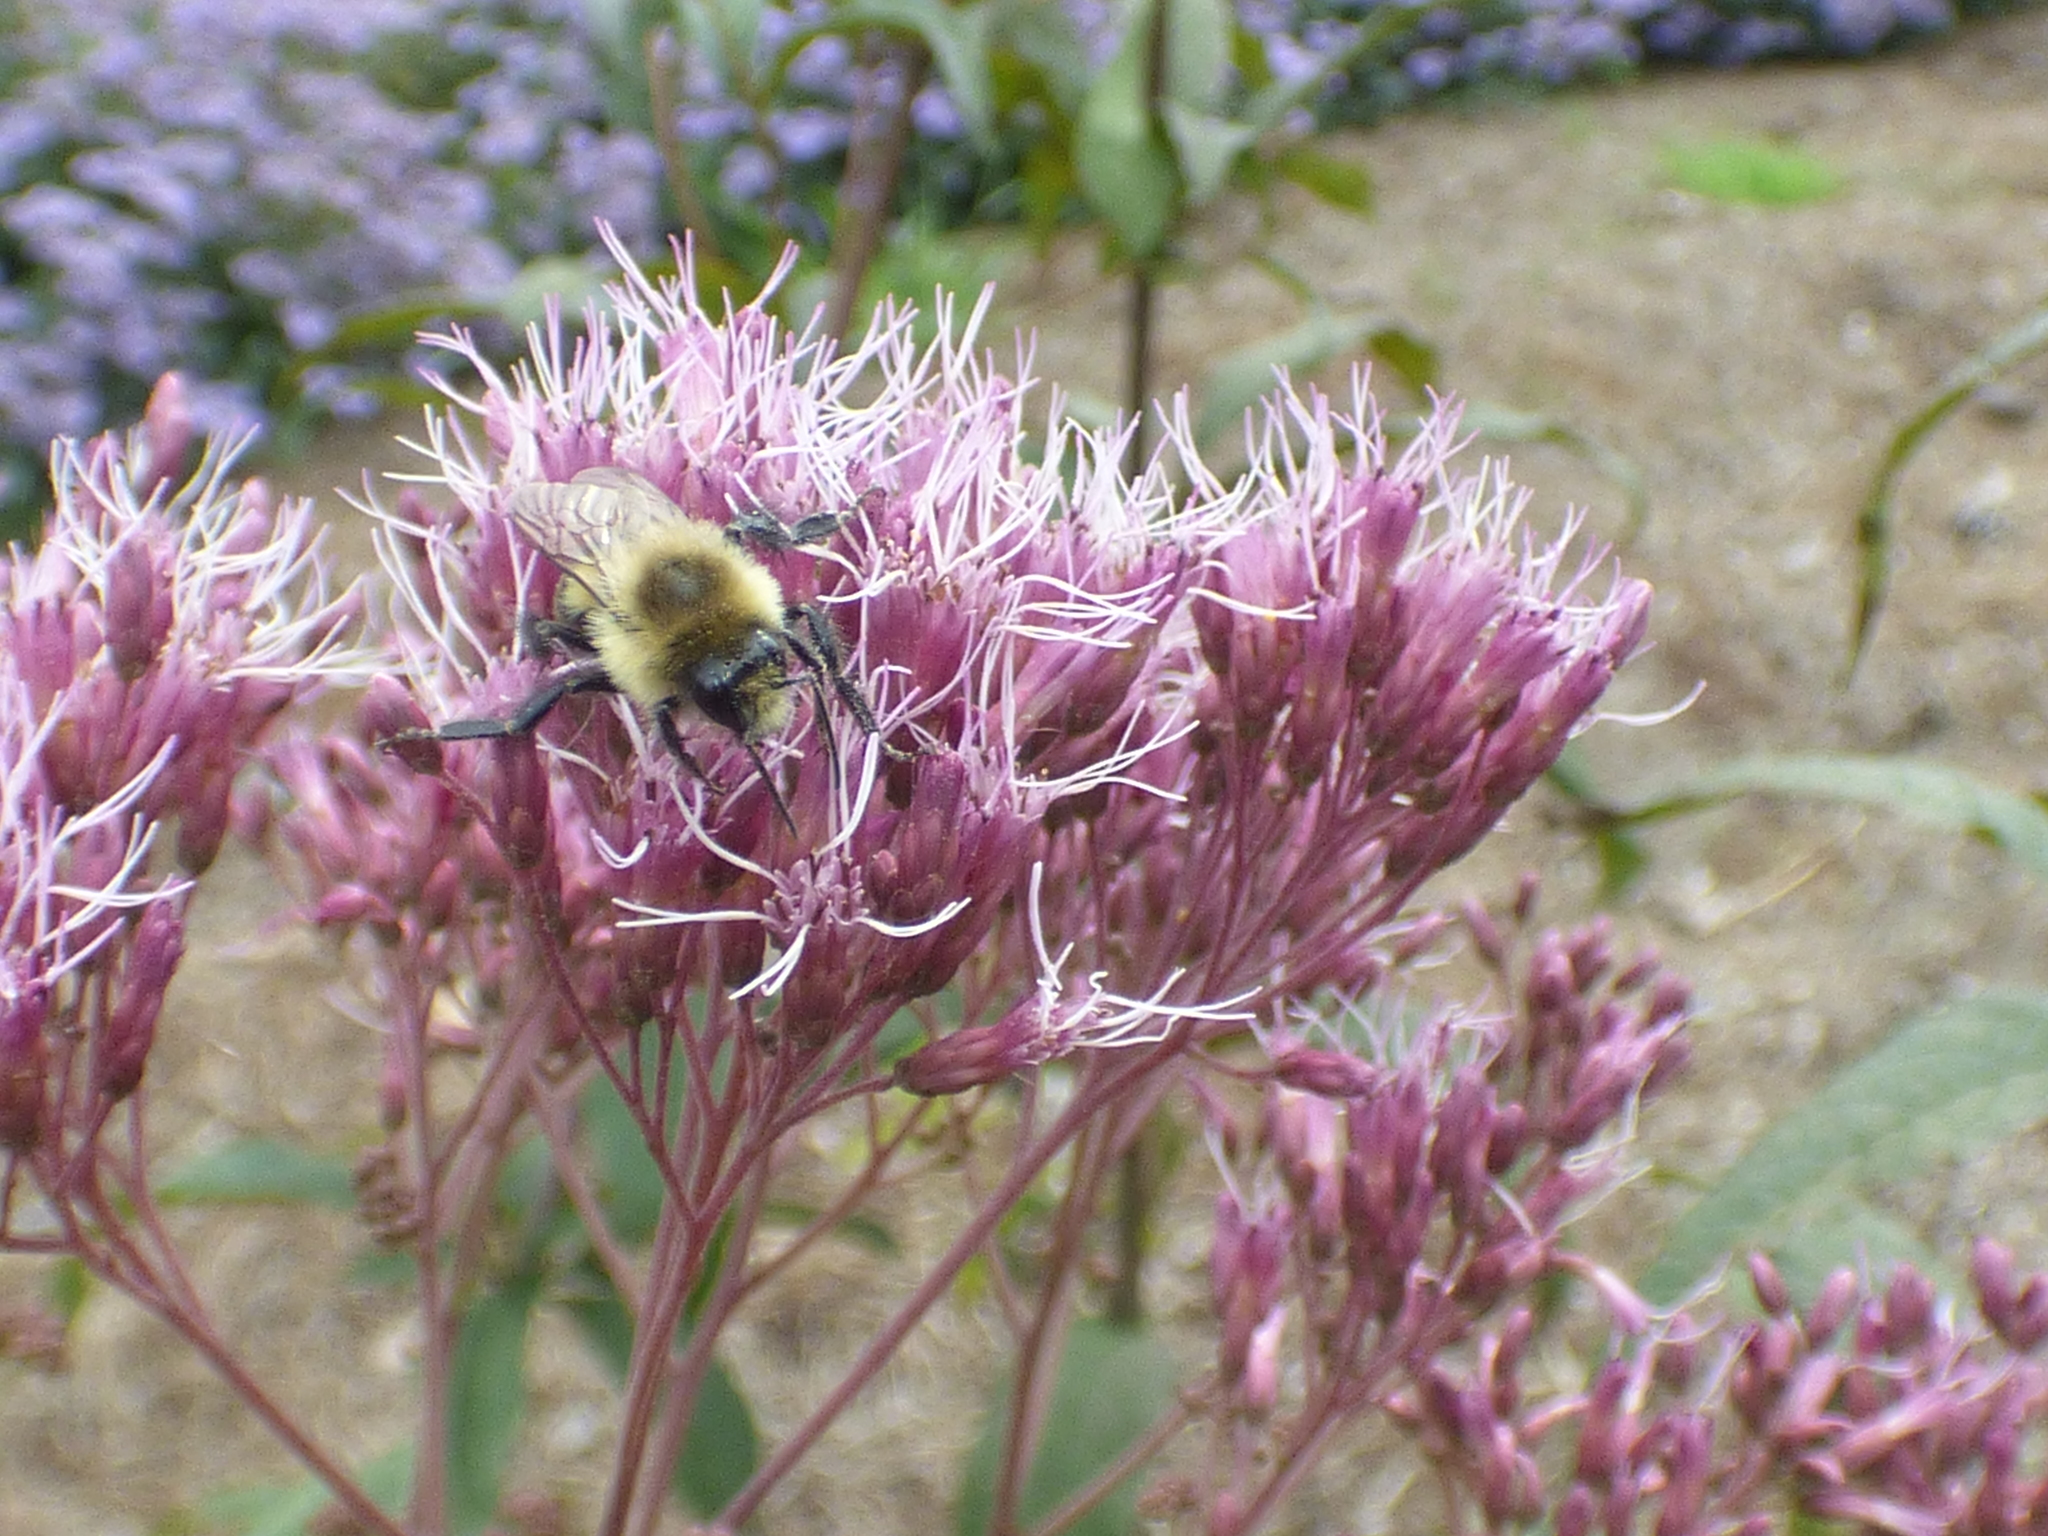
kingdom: Animalia
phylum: Arthropoda
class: Insecta
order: Hymenoptera
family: Apidae
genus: Bombus
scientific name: Bombus impatiens
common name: Common eastern bumble bee
